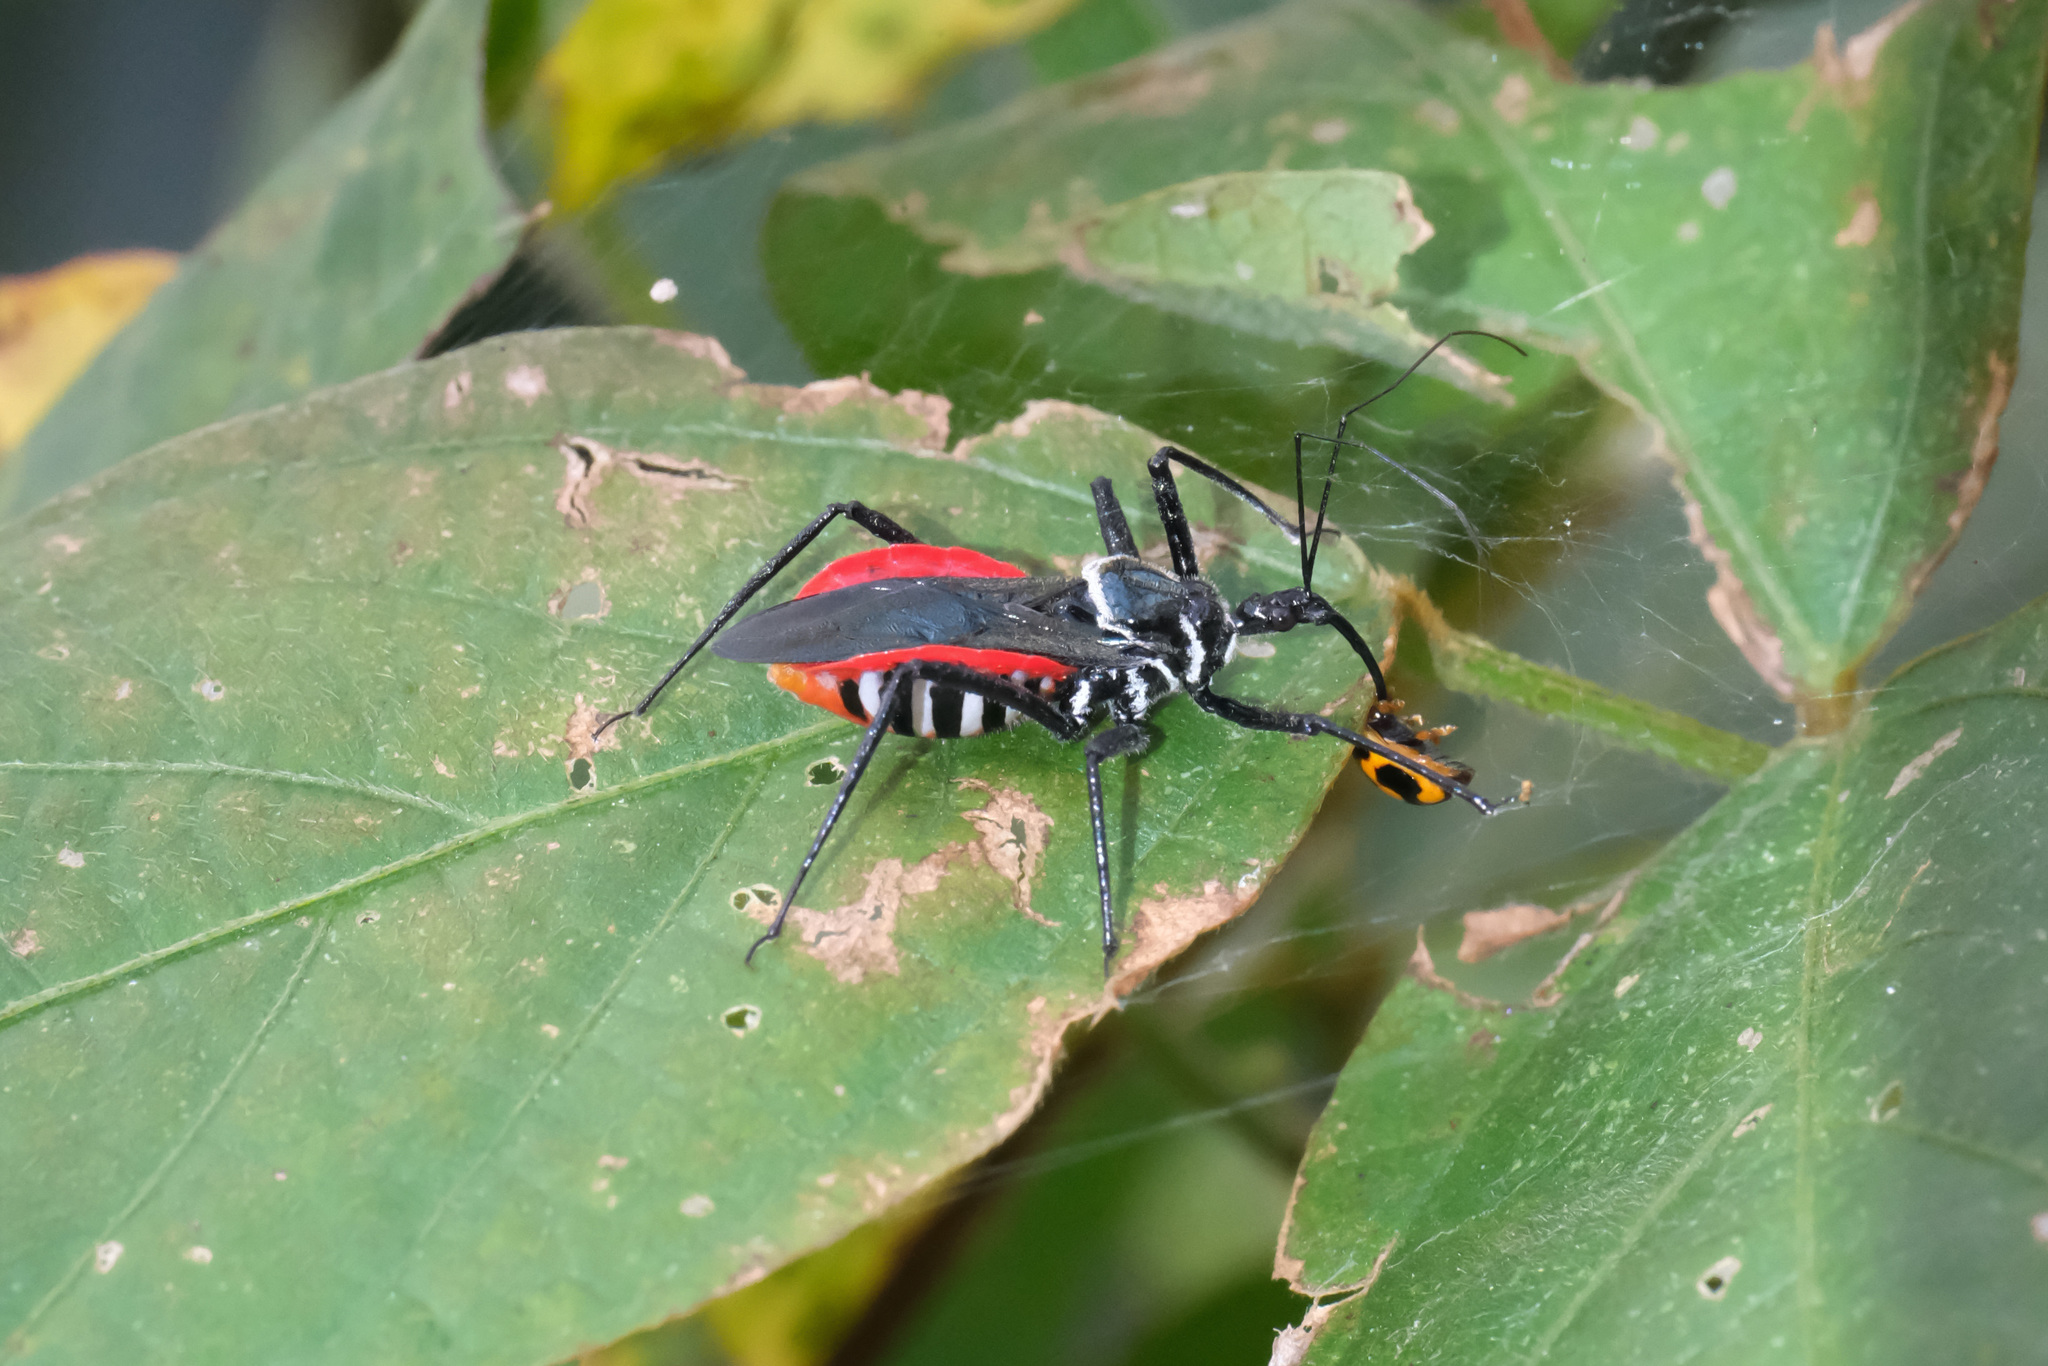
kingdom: Animalia
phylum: Arthropoda
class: Insecta
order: Hemiptera
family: Reduviidae
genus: Sphedanolestes
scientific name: Sphedanolestes pubinotus
